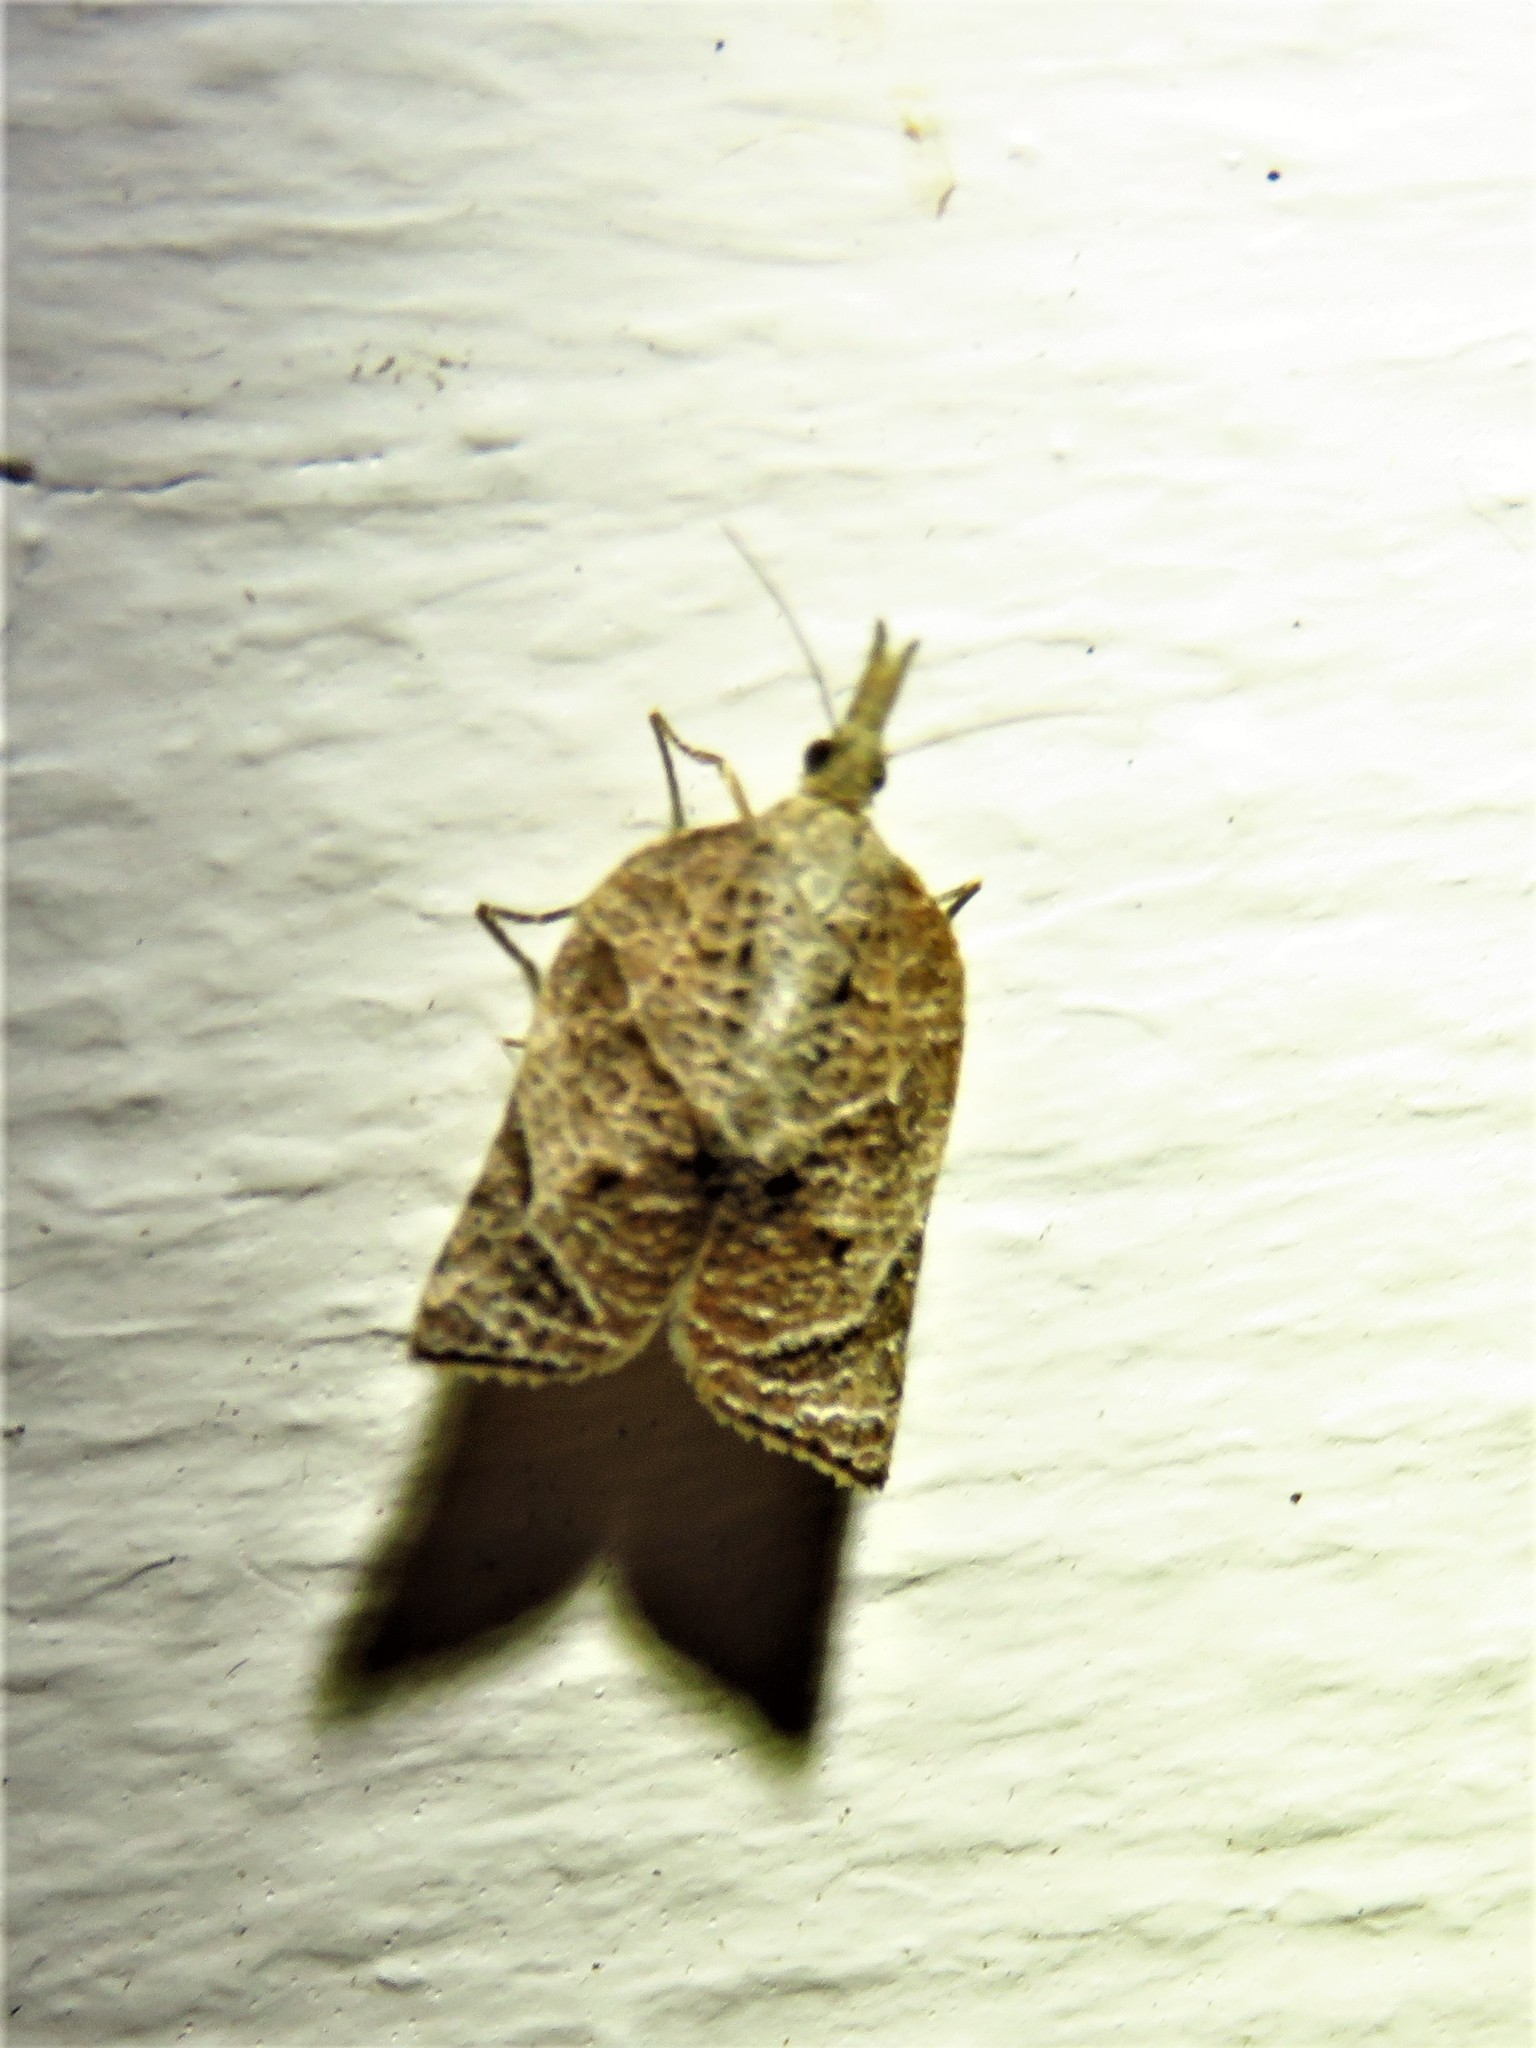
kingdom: Animalia
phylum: Arthropoda
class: Insecta
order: Lepidoptera
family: Tortricidae
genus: Platynota
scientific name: Platynota rostrana
